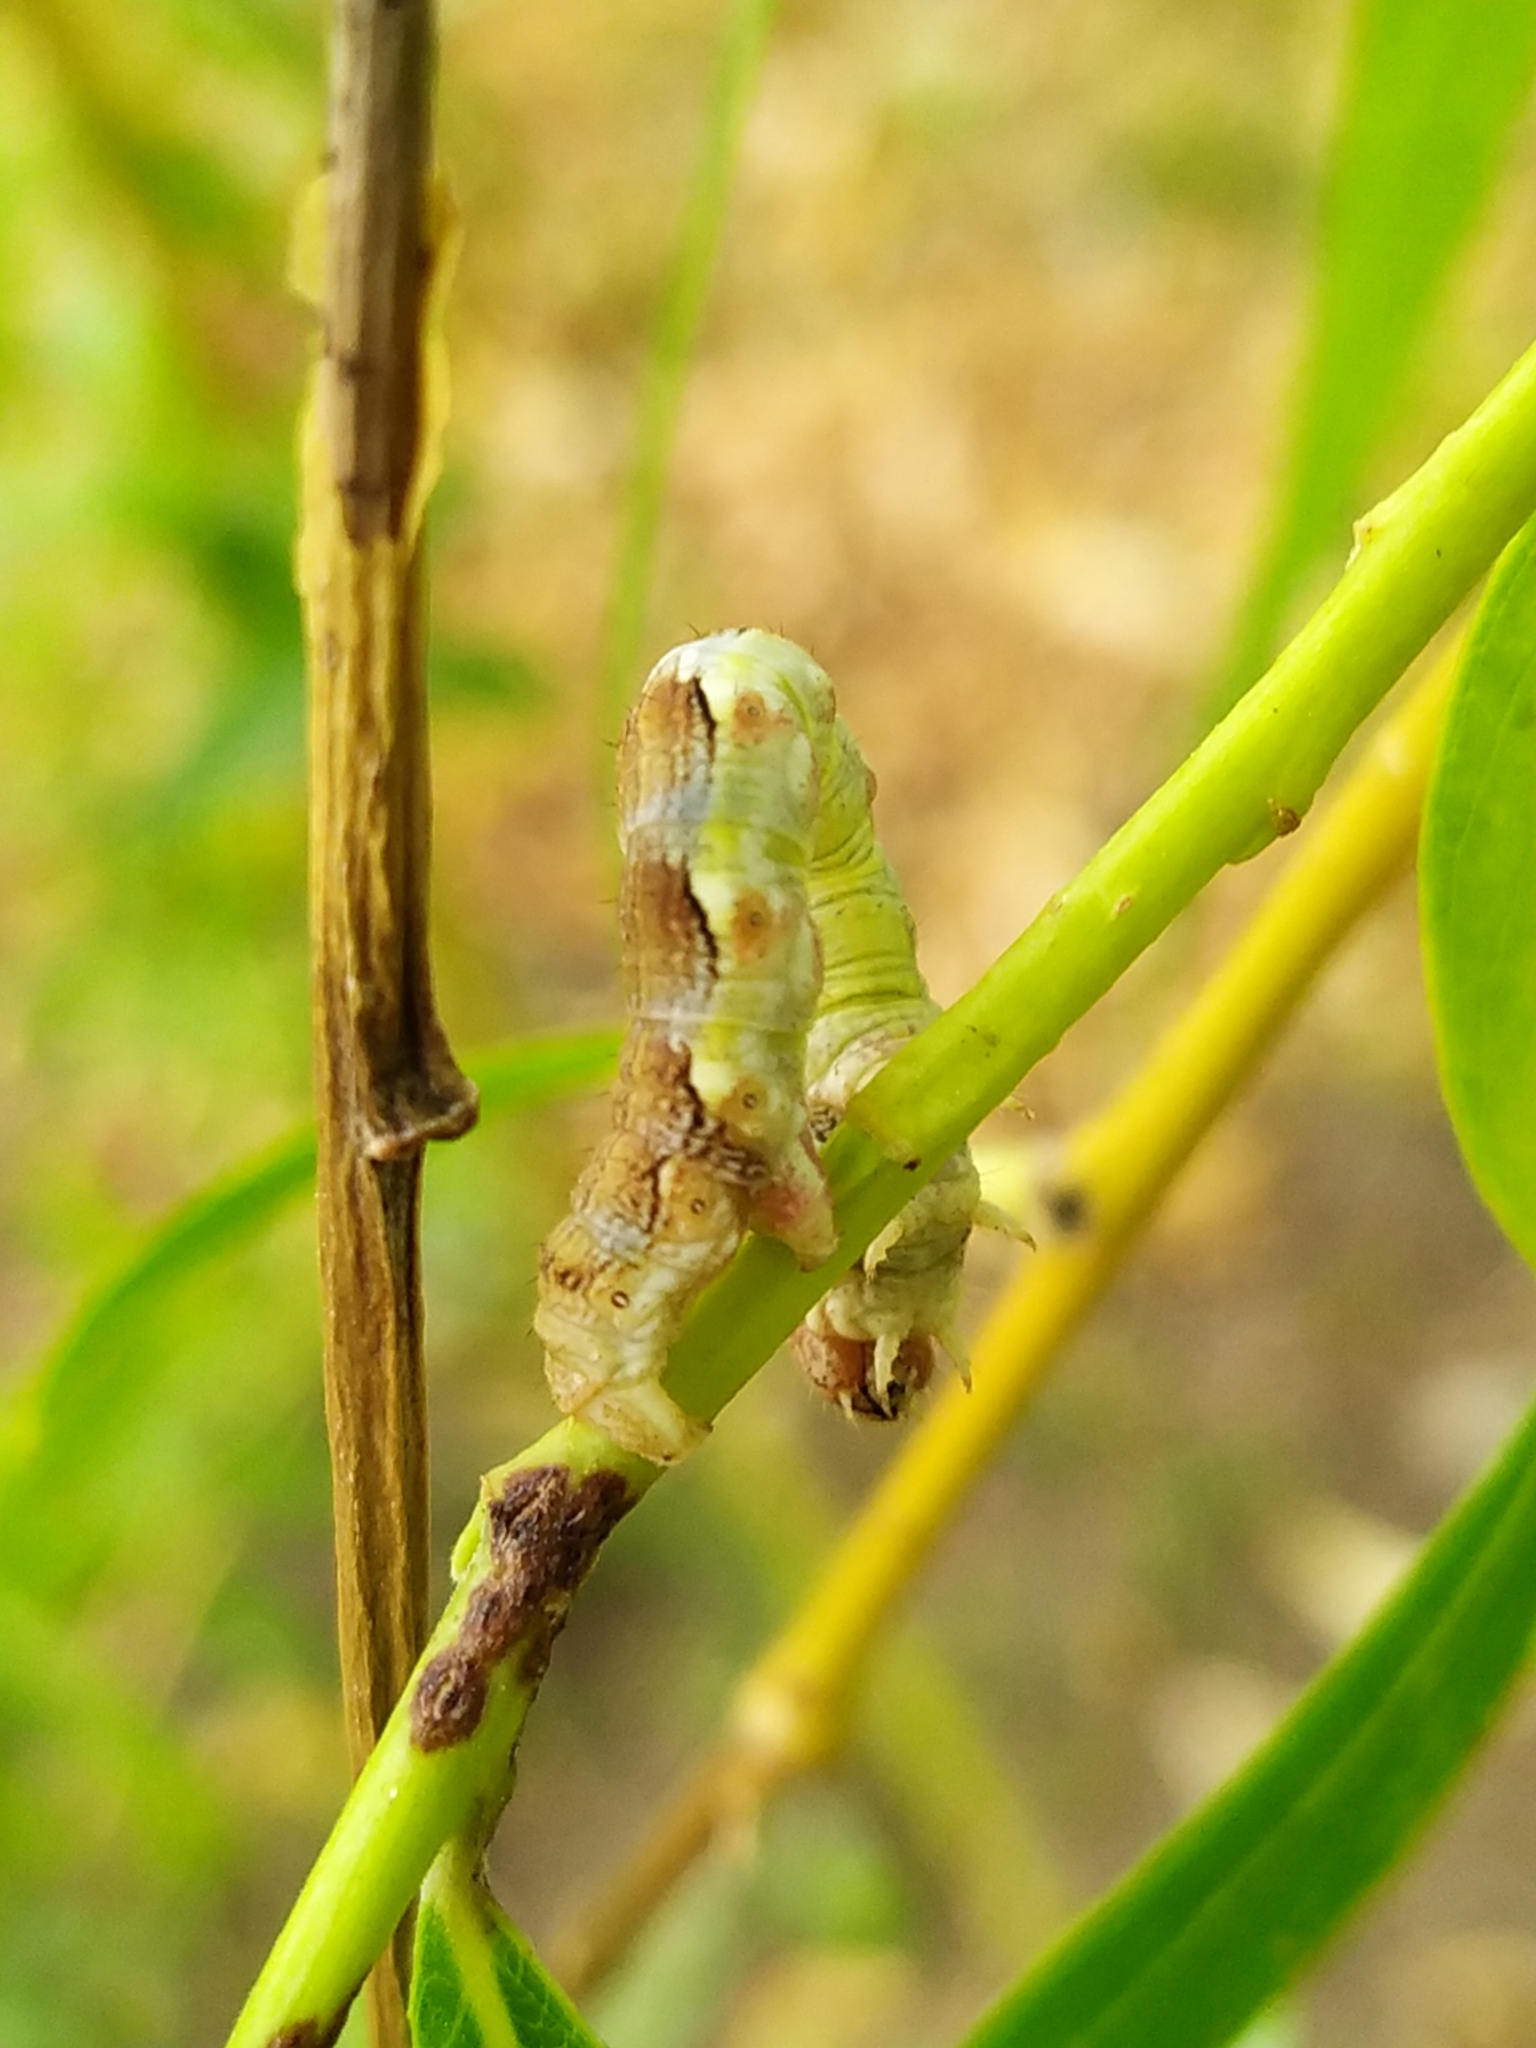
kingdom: Animalia
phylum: Arthropoda
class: Insecta
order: Lepidoptera
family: Geometridae
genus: Erannis
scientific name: Erannis defoliaria
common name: Mottled umber
